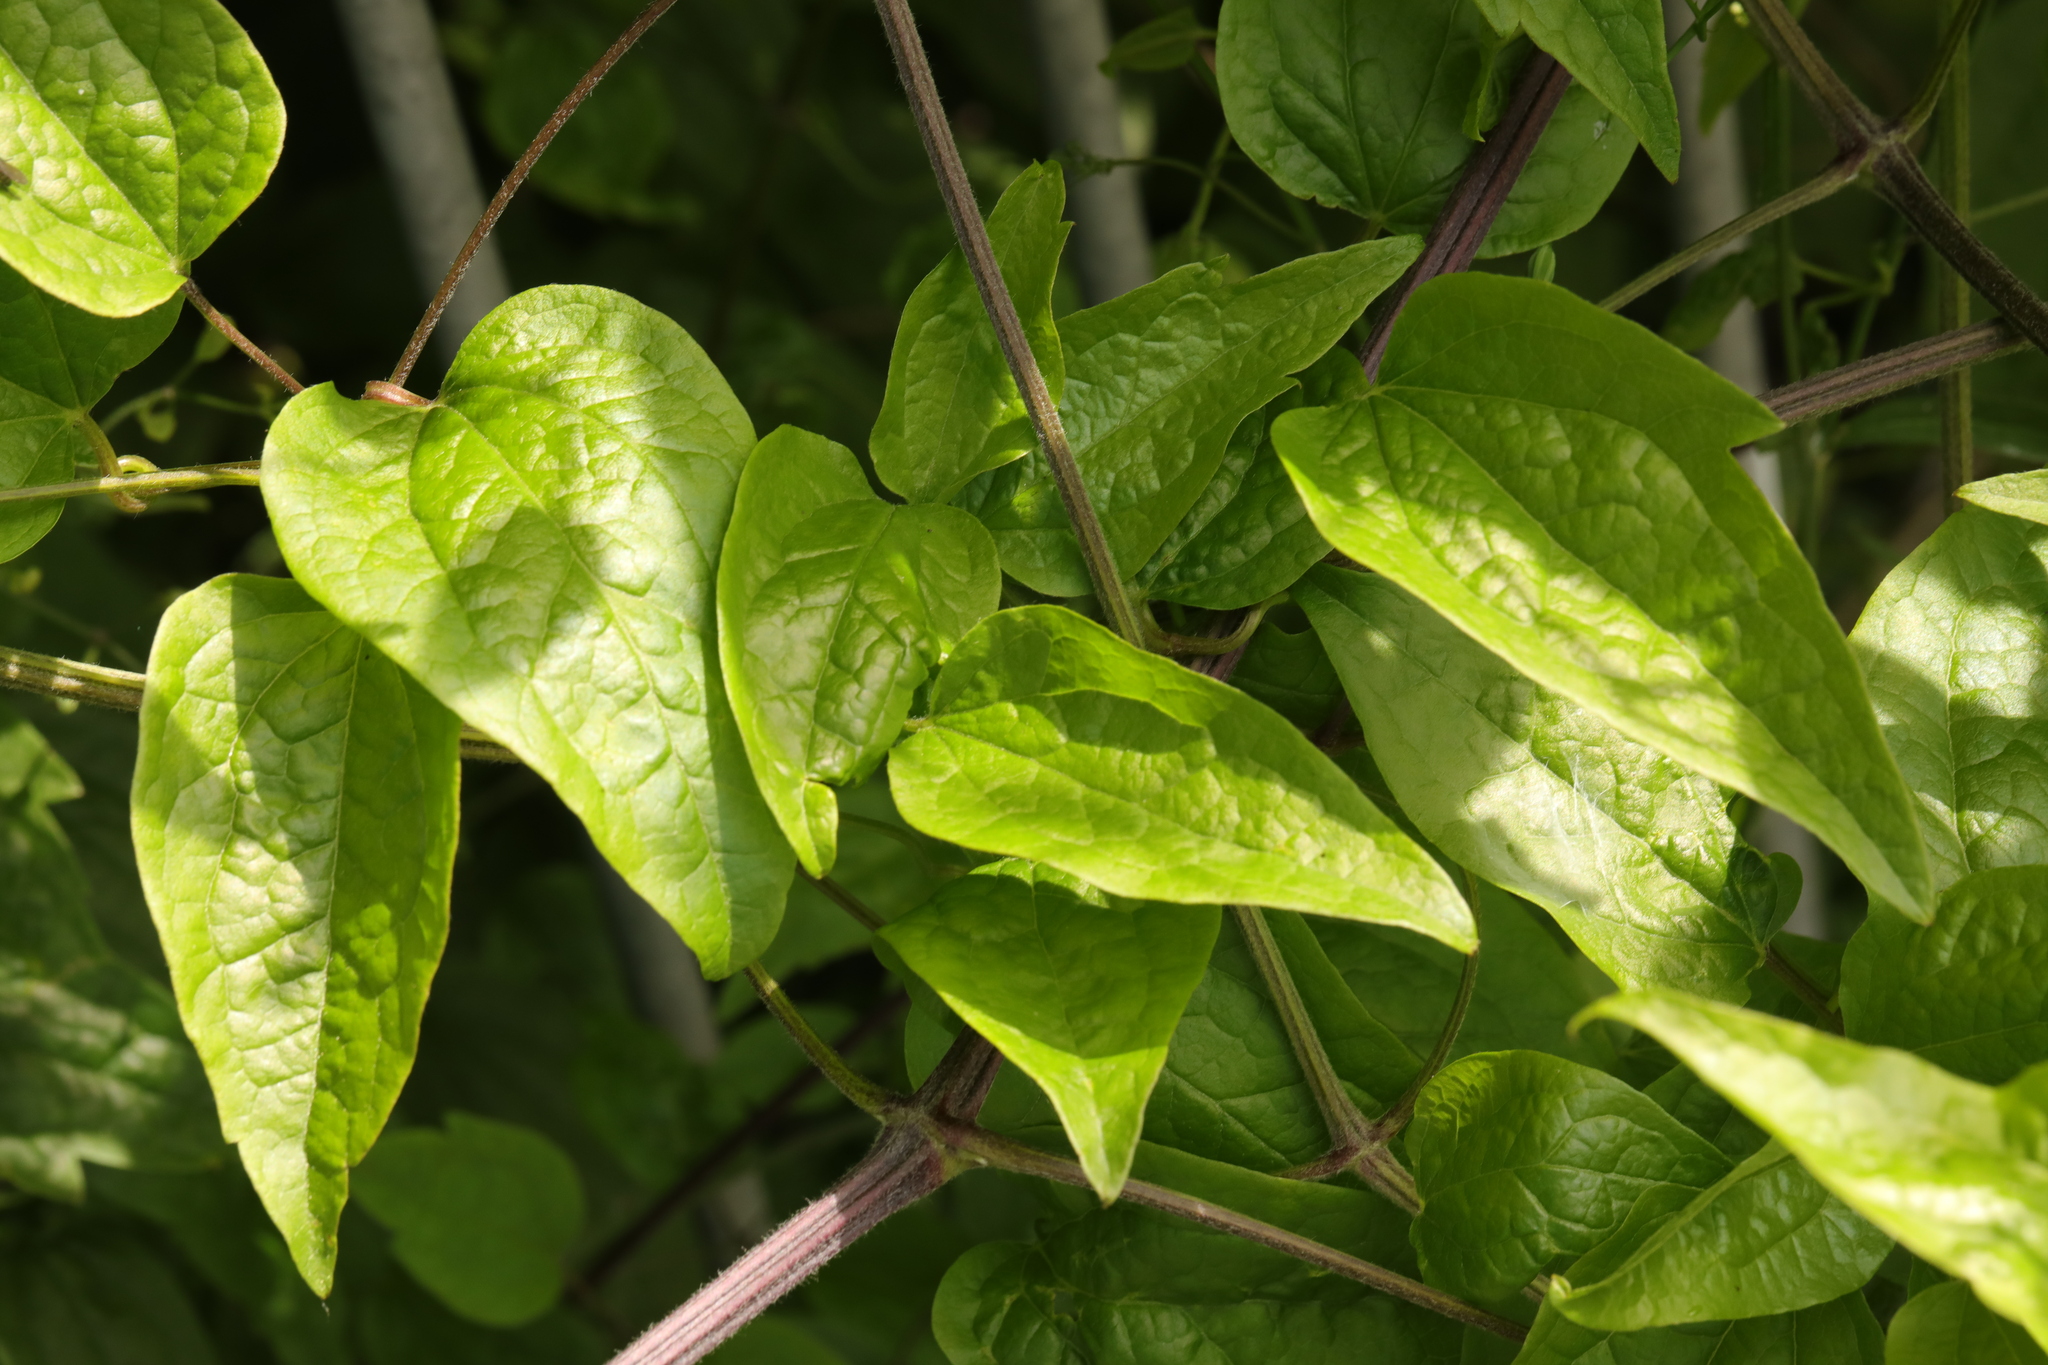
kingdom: Plantae
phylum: Tracheophyta
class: Magnoliopsida
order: Ranunculales
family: Ranunculaceae
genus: Clematis
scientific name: Clematis vitalba
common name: Evergreen clematis
